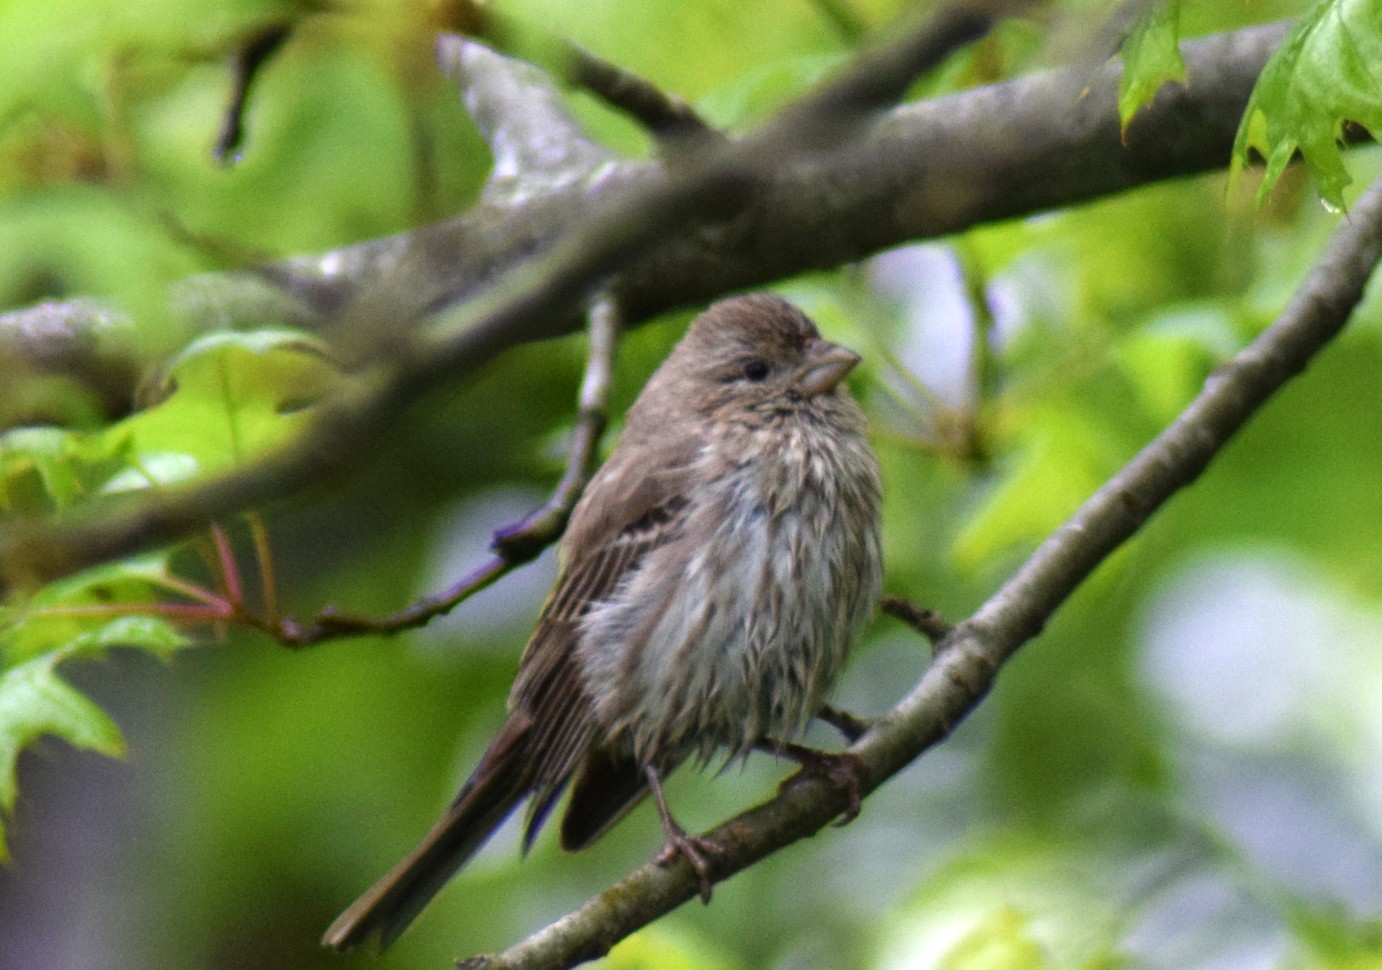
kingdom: Animalia
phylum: Chordata
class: Aves
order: Passeriformes
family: Fringillidae
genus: Haemorhous
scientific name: Haemorhous mexicanus
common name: House finch
